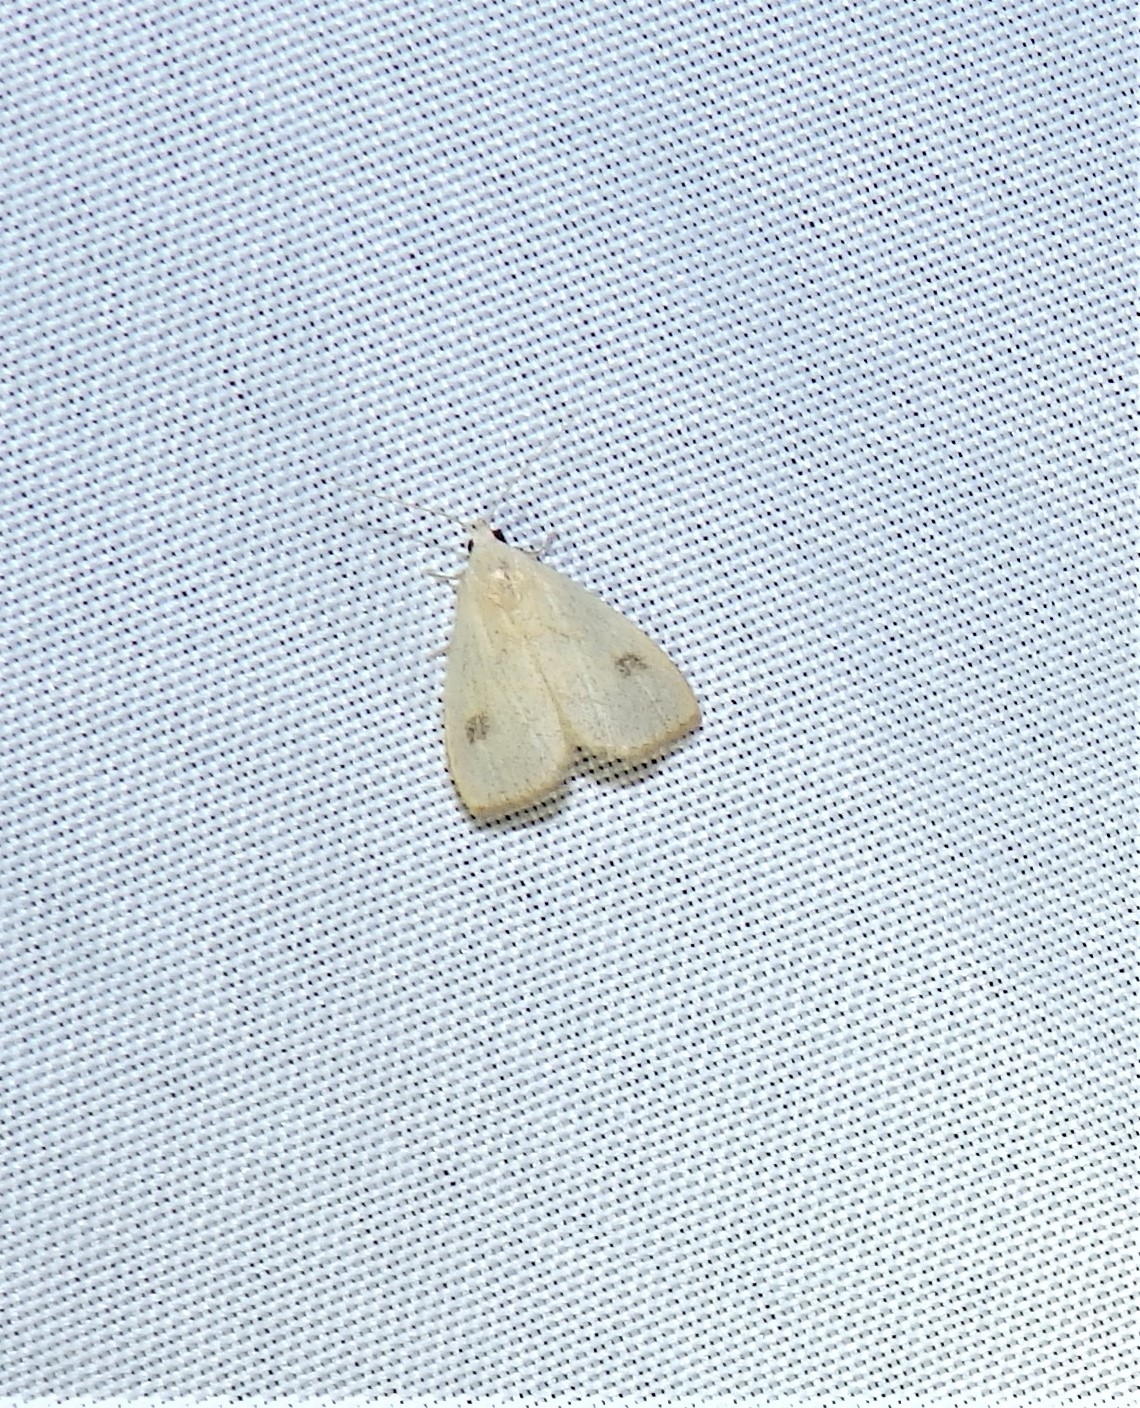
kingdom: Animalia
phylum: Arthropoda
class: Insecta
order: Lepidoptera
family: Erebidae
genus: Rivula
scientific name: Rivula propinqualis
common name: Spotted grass moth
